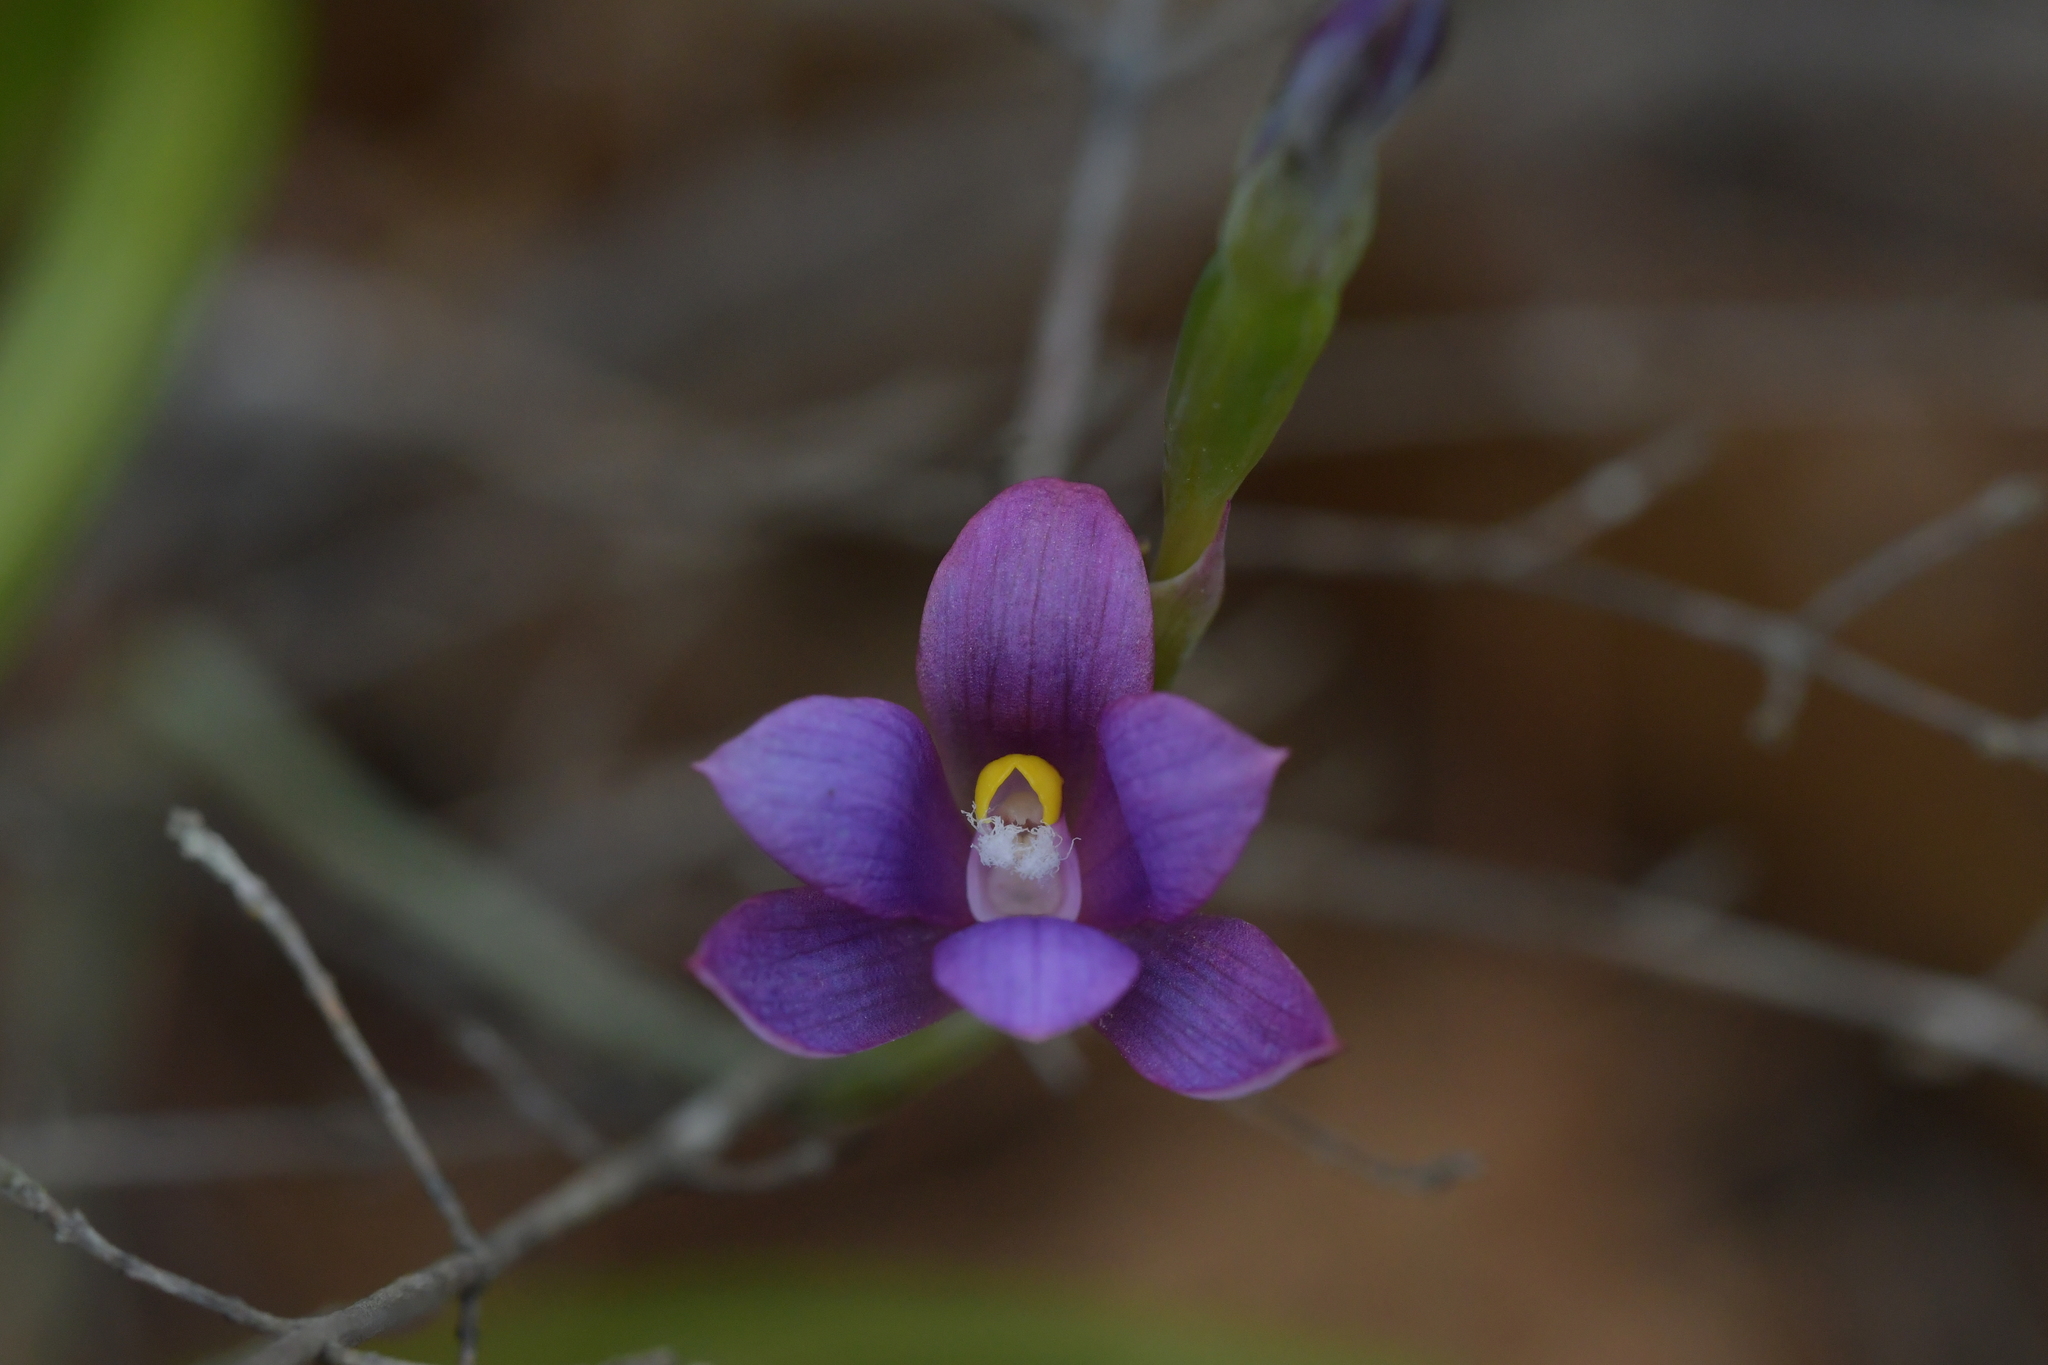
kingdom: Plantae
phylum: Tracheophyta
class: Liliopsida
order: Asparagales
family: Orchidaceae
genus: Thelymitra
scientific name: Thelymitra nervosa
